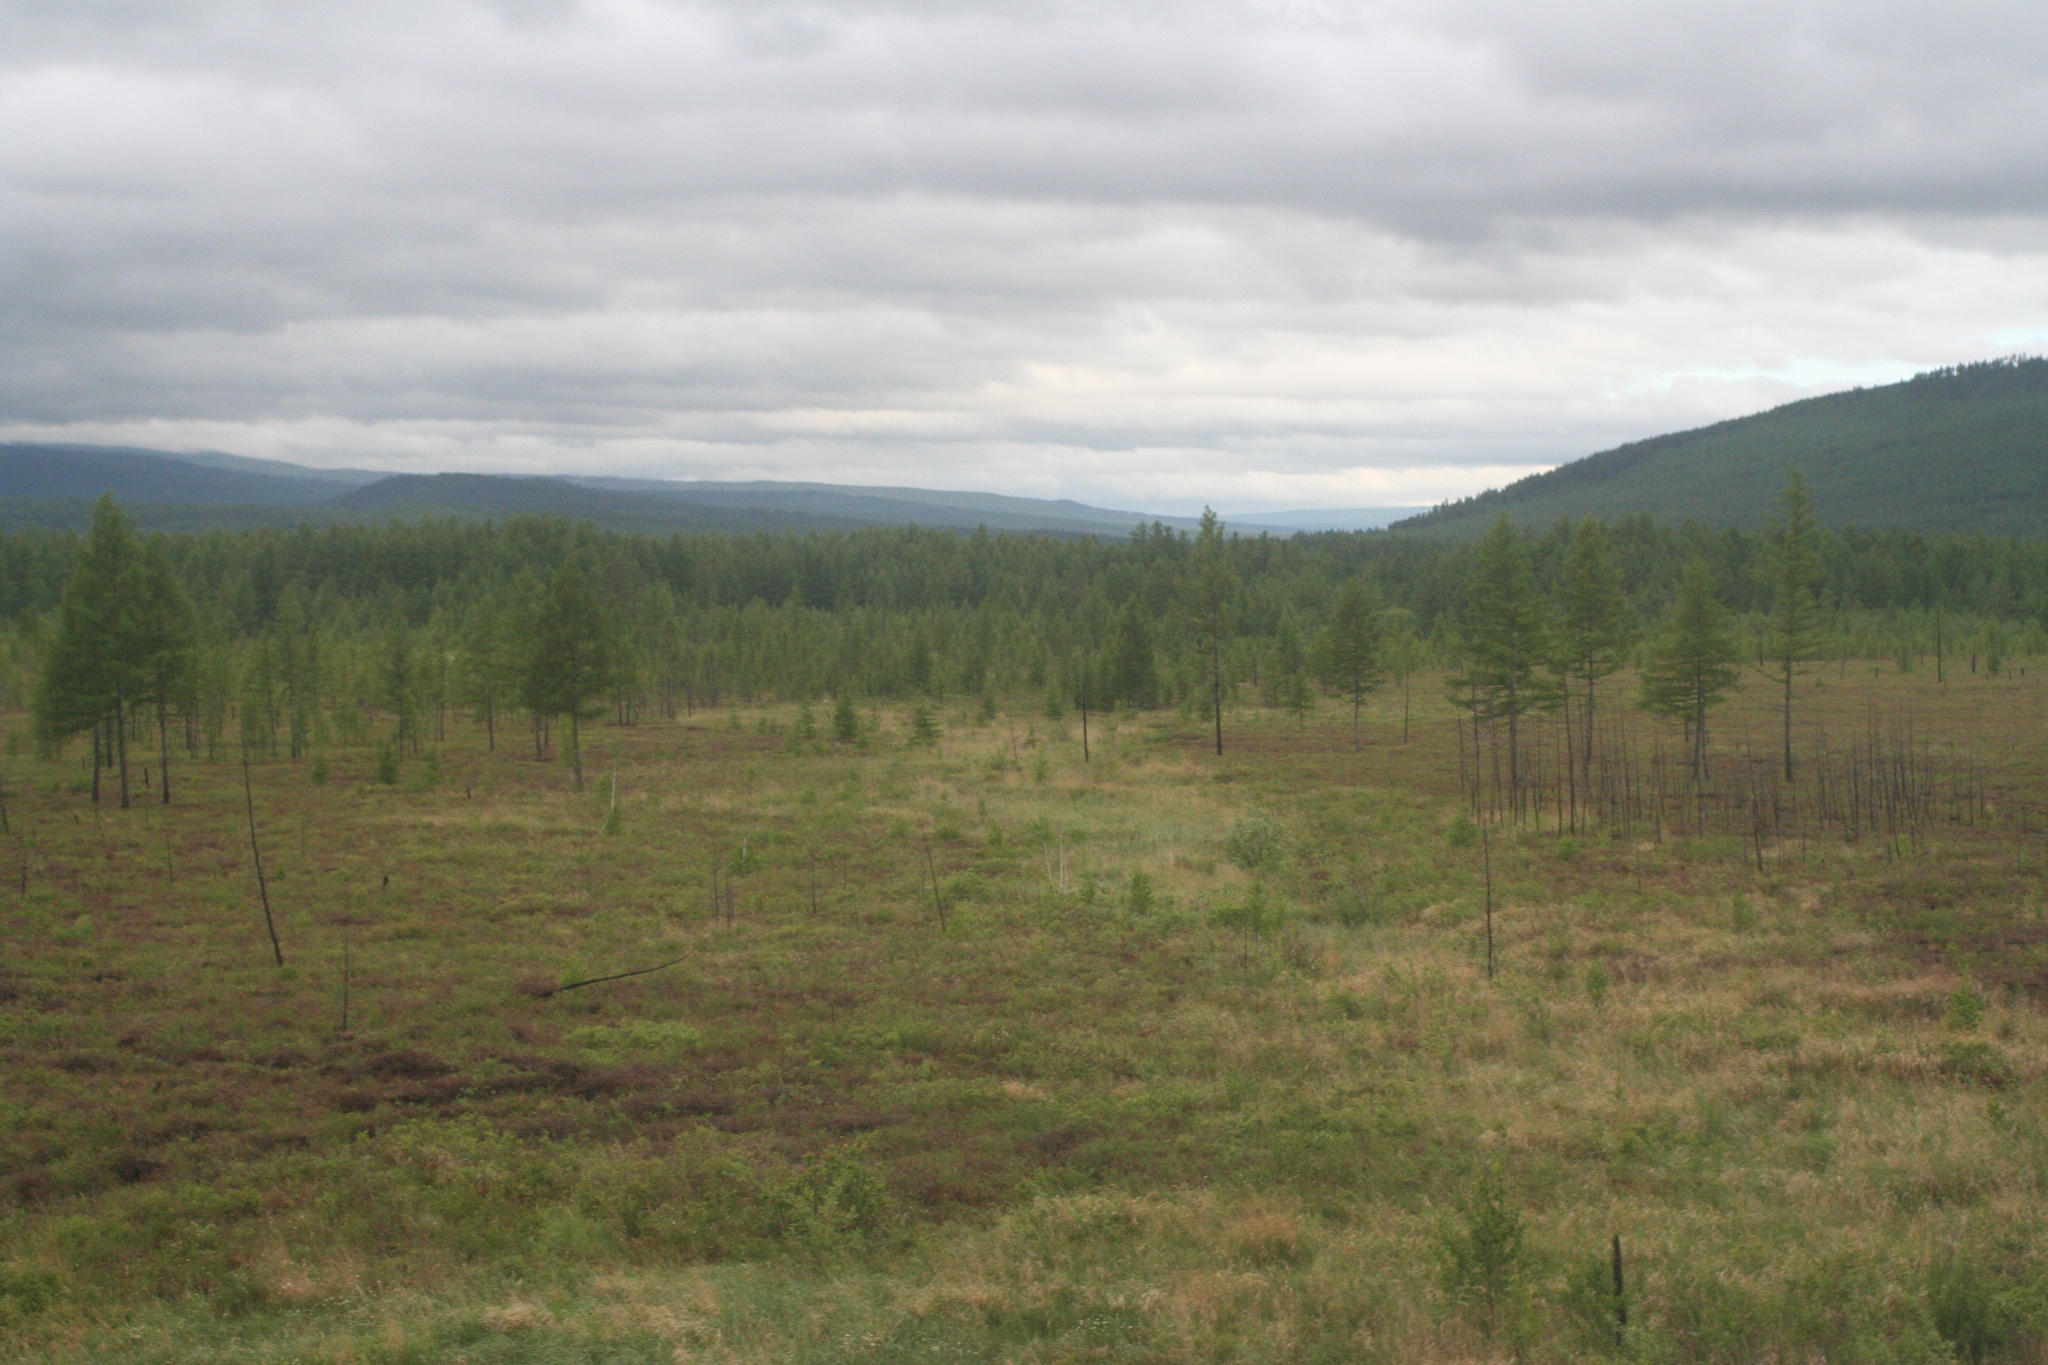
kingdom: Plantae
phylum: Tracheophyta
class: Pinopsida
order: Pinales
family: Pinaceae
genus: Larix
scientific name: Larix gmelinii
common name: Dahurian larch
